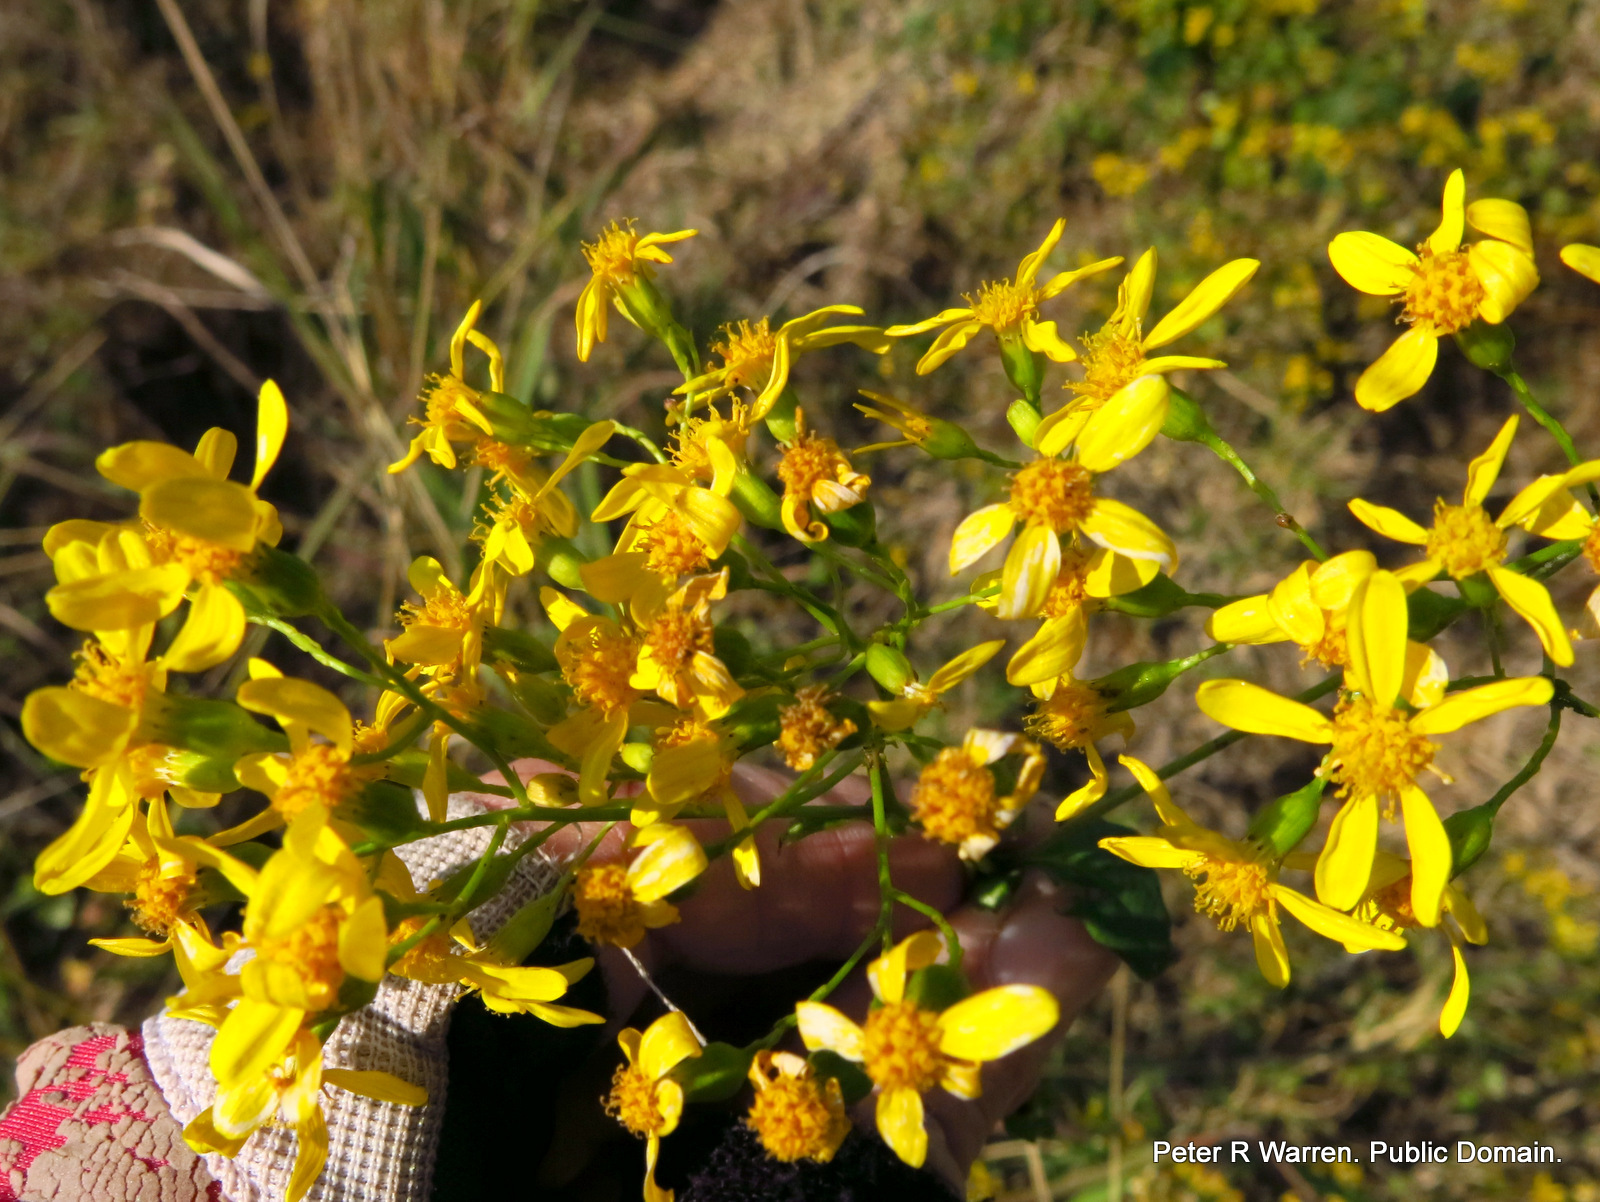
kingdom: Plantae
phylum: Tracheophyta
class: Magnoliopsida
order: Asterales
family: Asteraceae
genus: Senecio
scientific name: Senecio deltoideus
